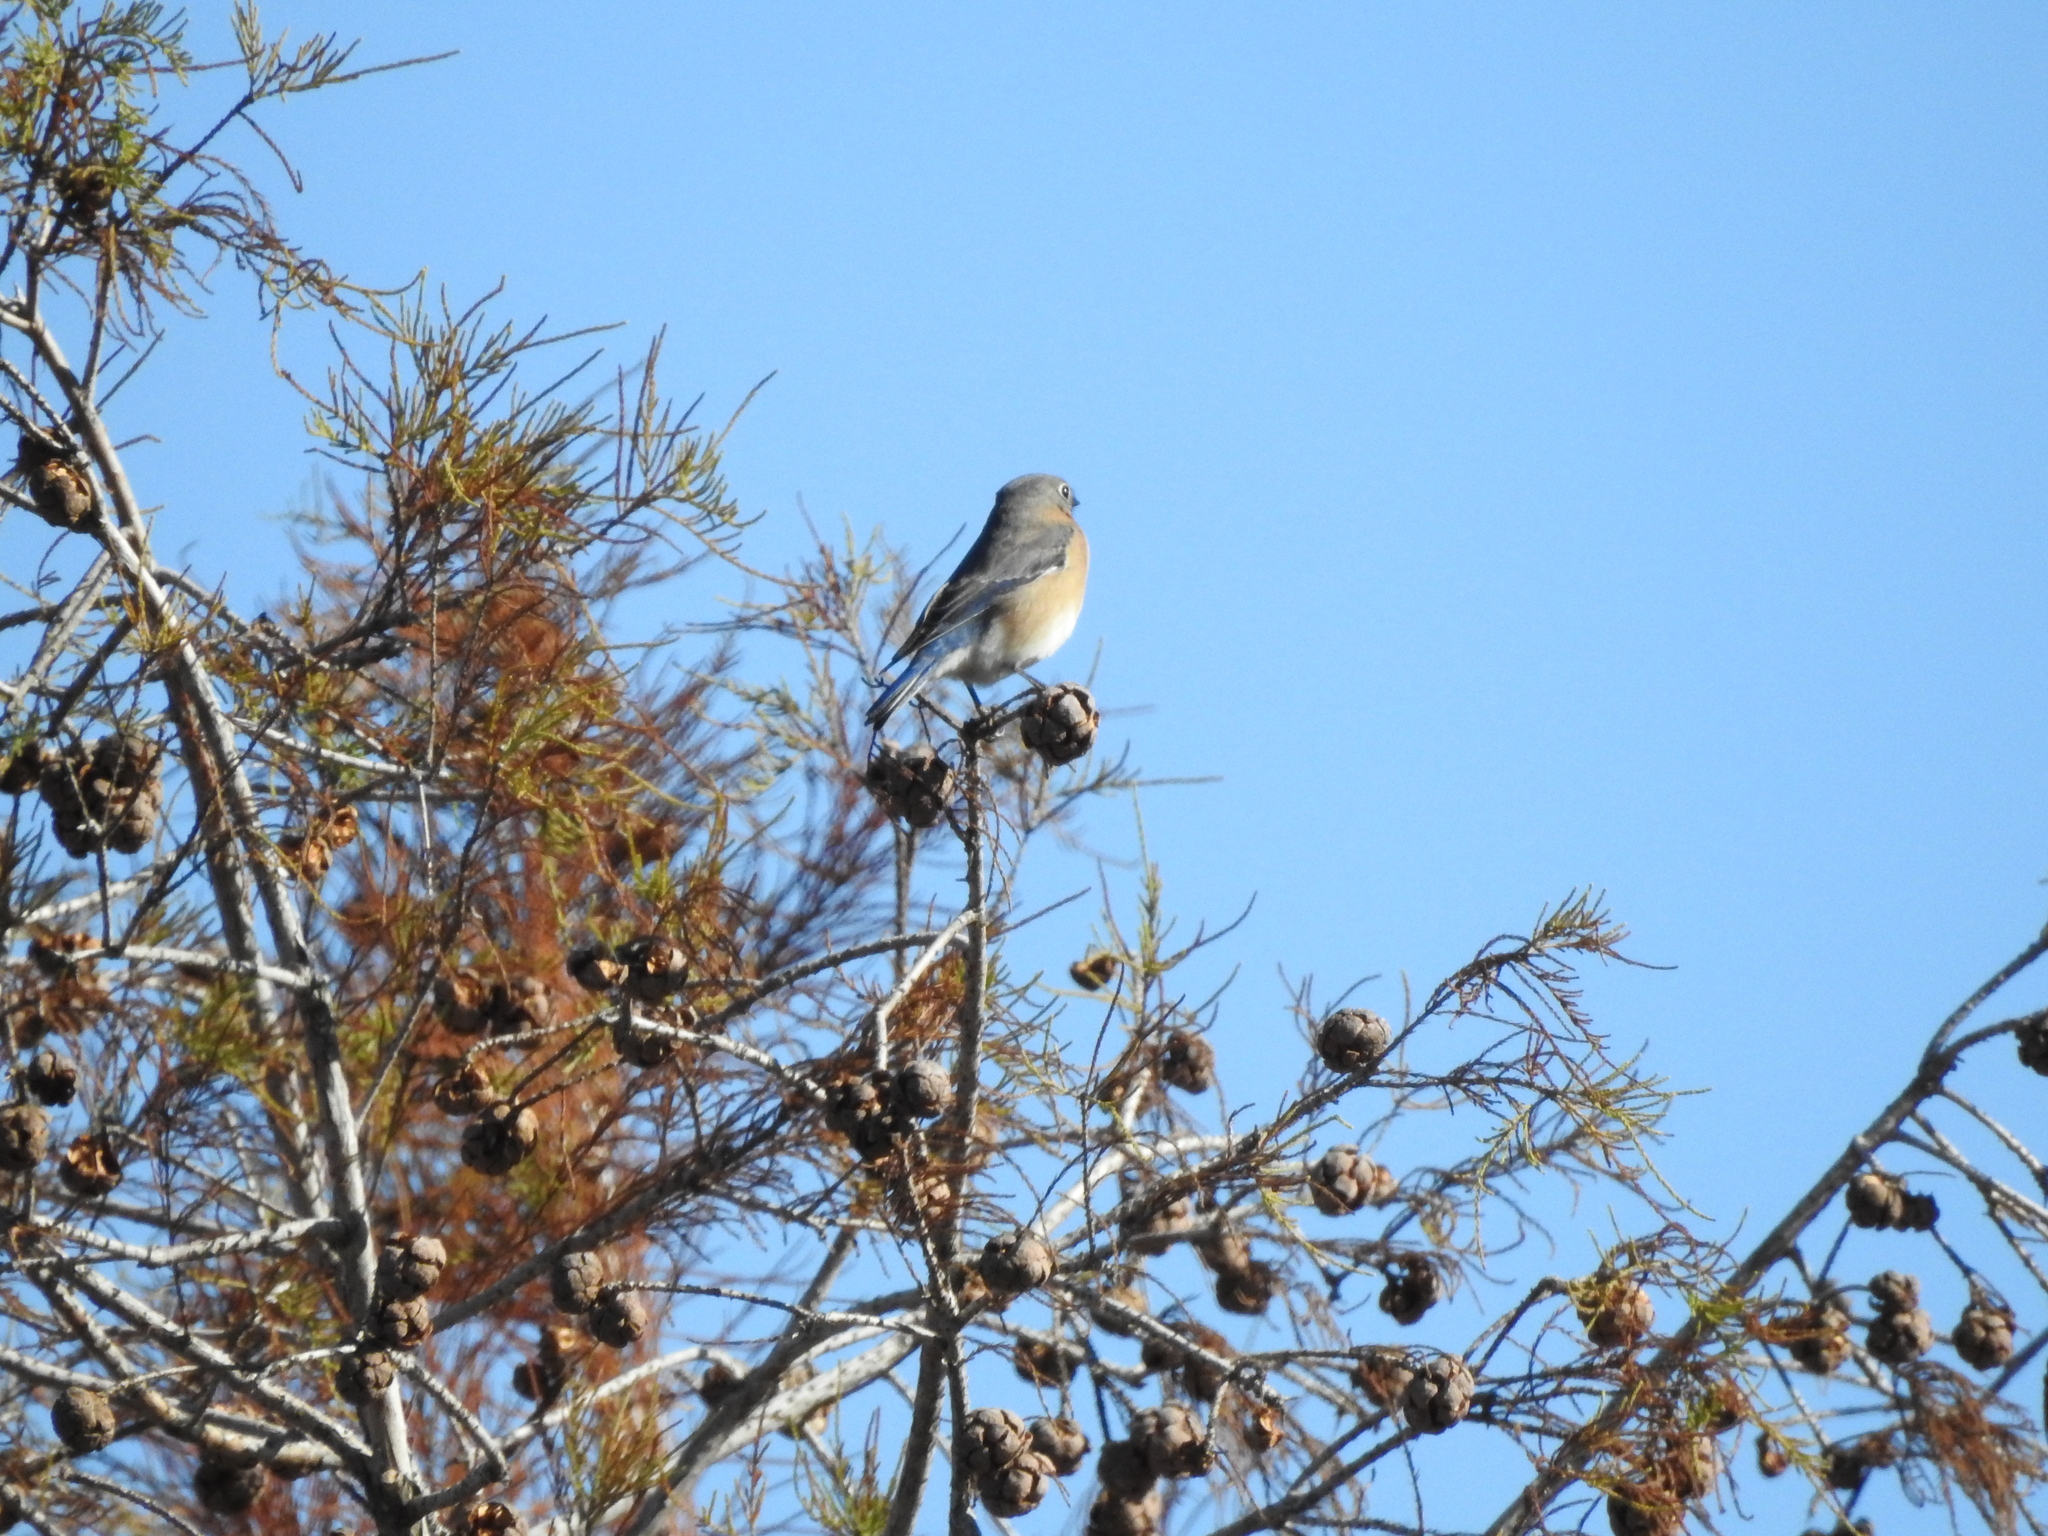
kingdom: Animalia
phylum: Chordata
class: Aves
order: Passeriformes
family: Turdidae
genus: Sialia
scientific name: Sialia sialis
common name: Eastern bluebird
